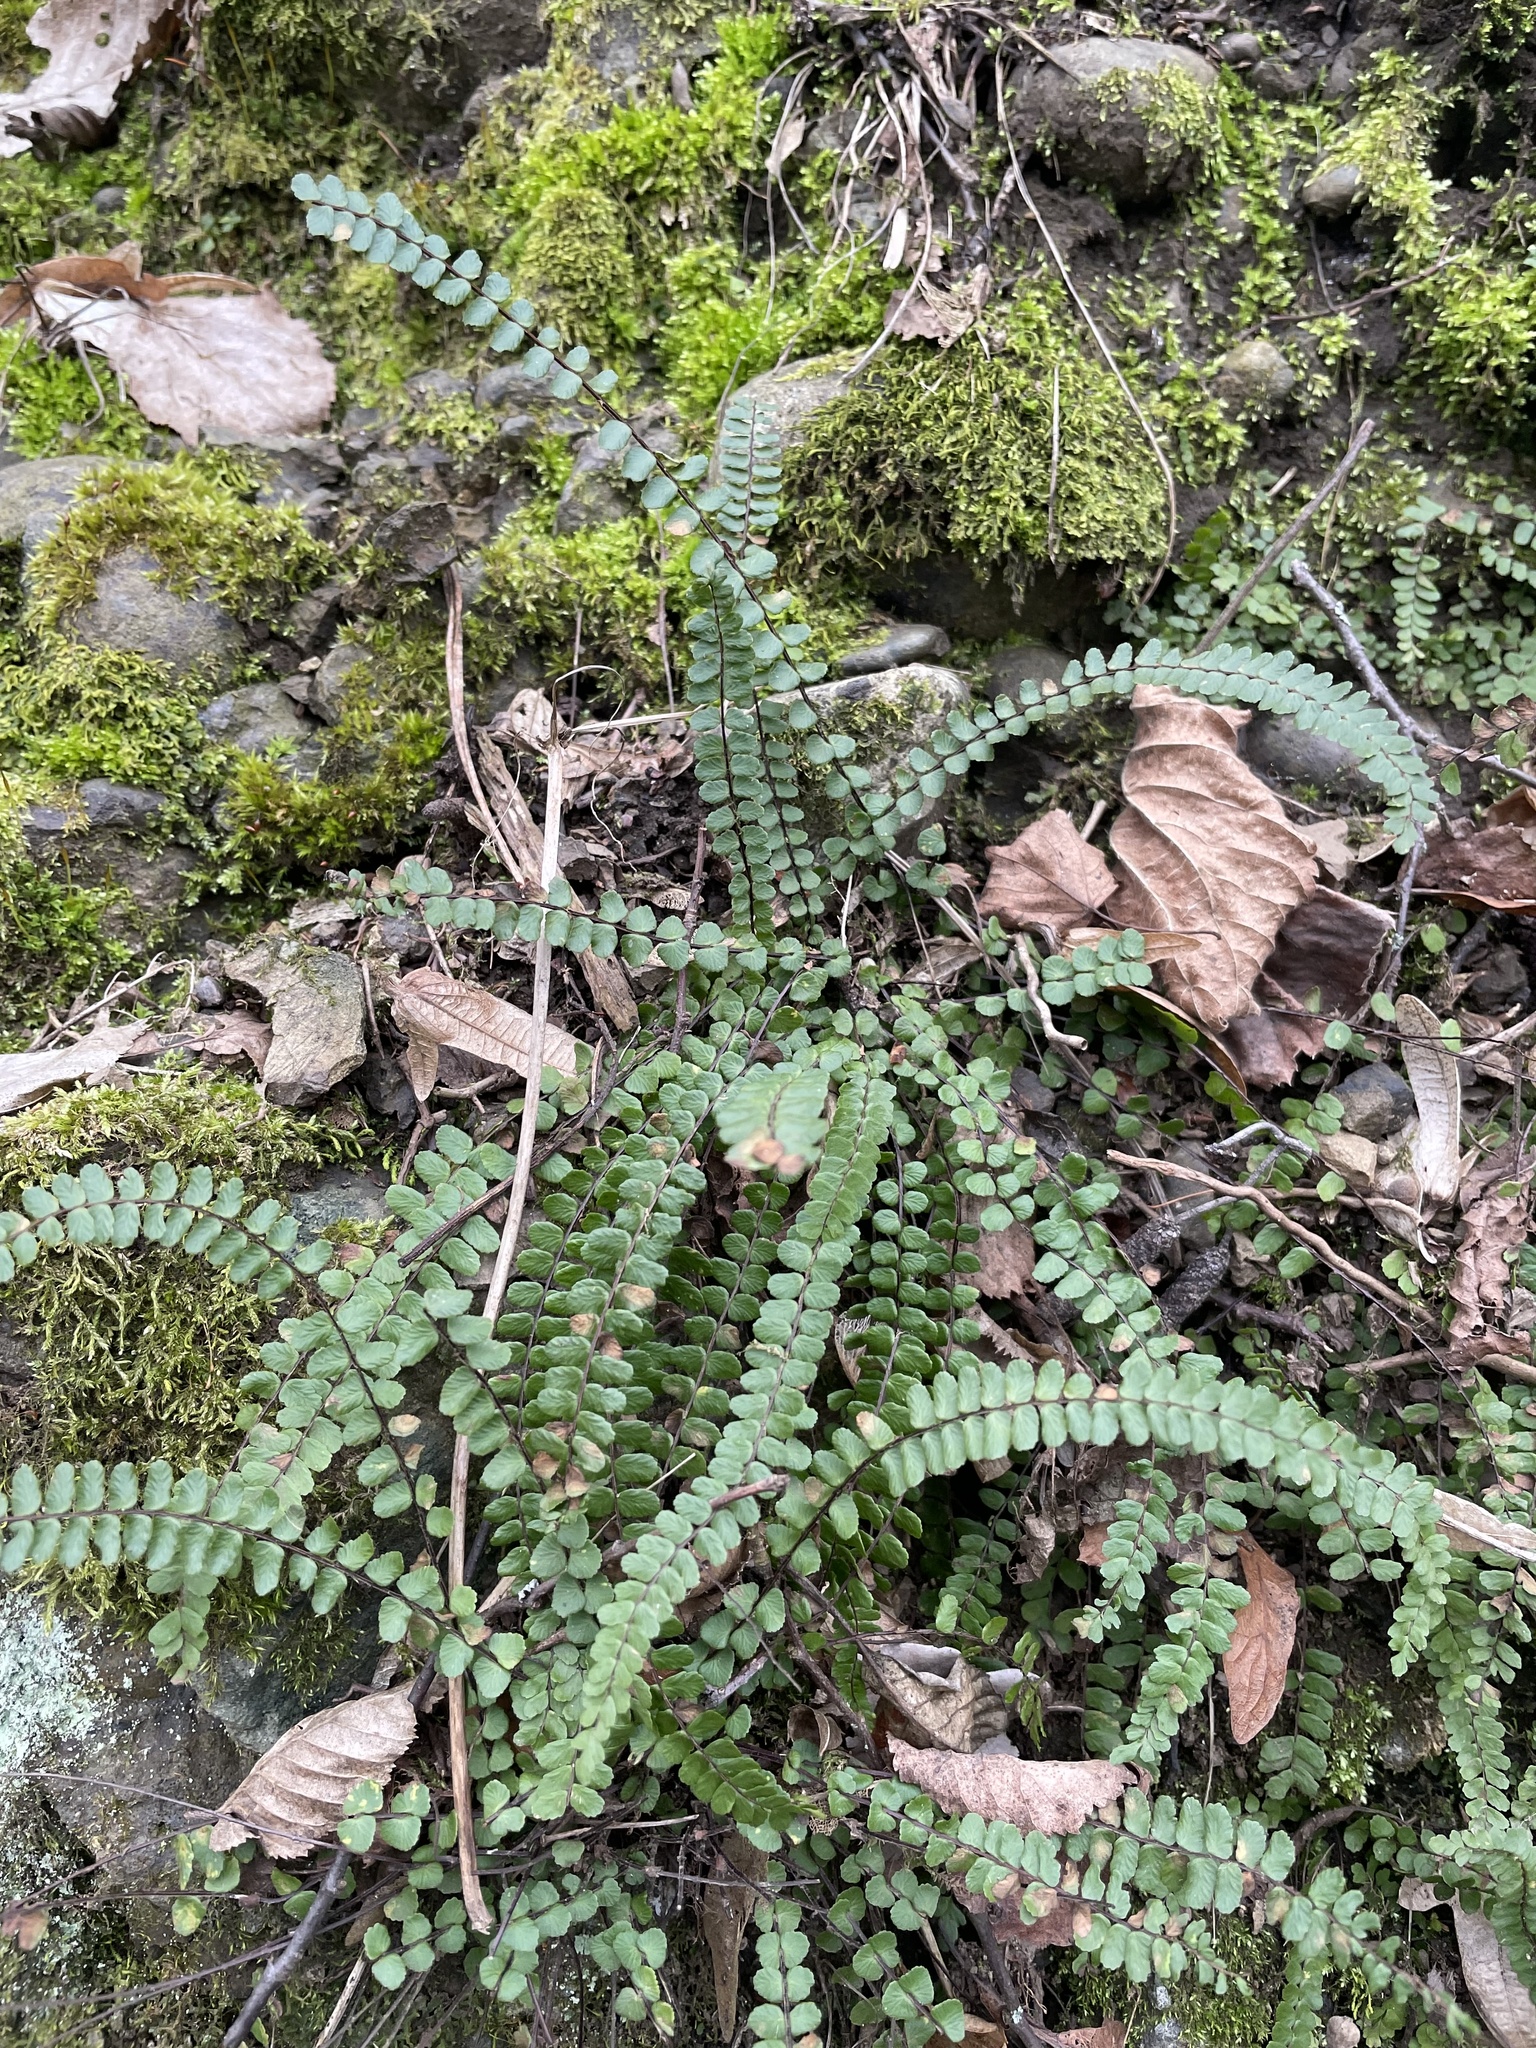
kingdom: Plantae
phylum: Tracheophyta
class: Polypodiopsida
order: Polypodiales
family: Aspleniaceae
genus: Asplenium
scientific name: Asplenium trichomanes
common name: Maidenhair spleenwort
